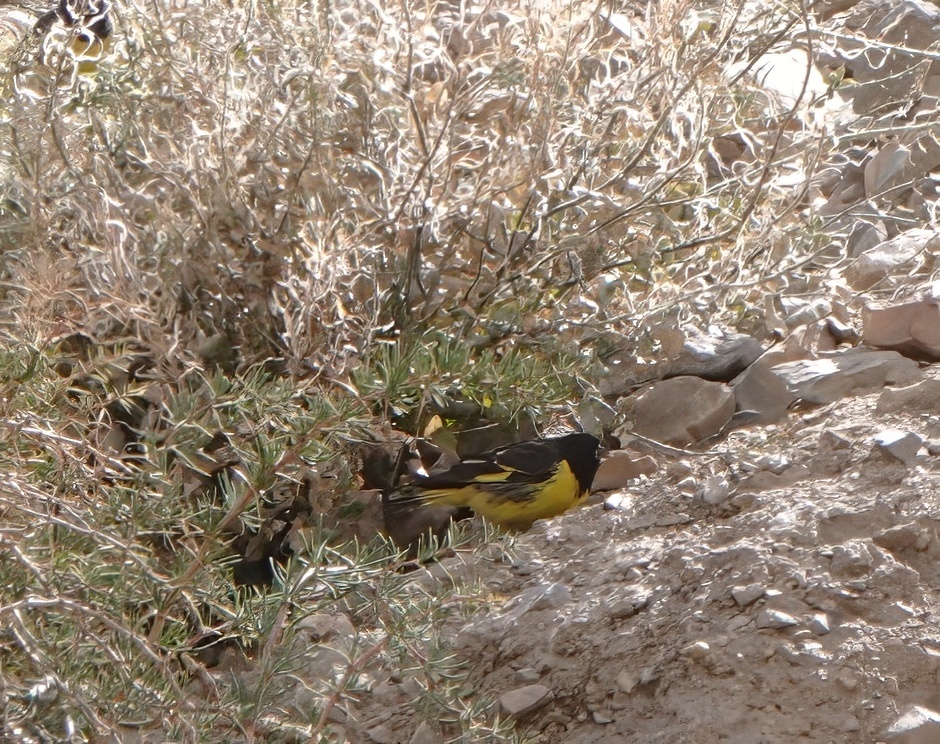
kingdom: Animalia
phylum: Chordata
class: Aves
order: Passeriformes
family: Fringillidae
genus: Spinus
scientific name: Spinus uropygialis
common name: Yellow-rumped siskin
